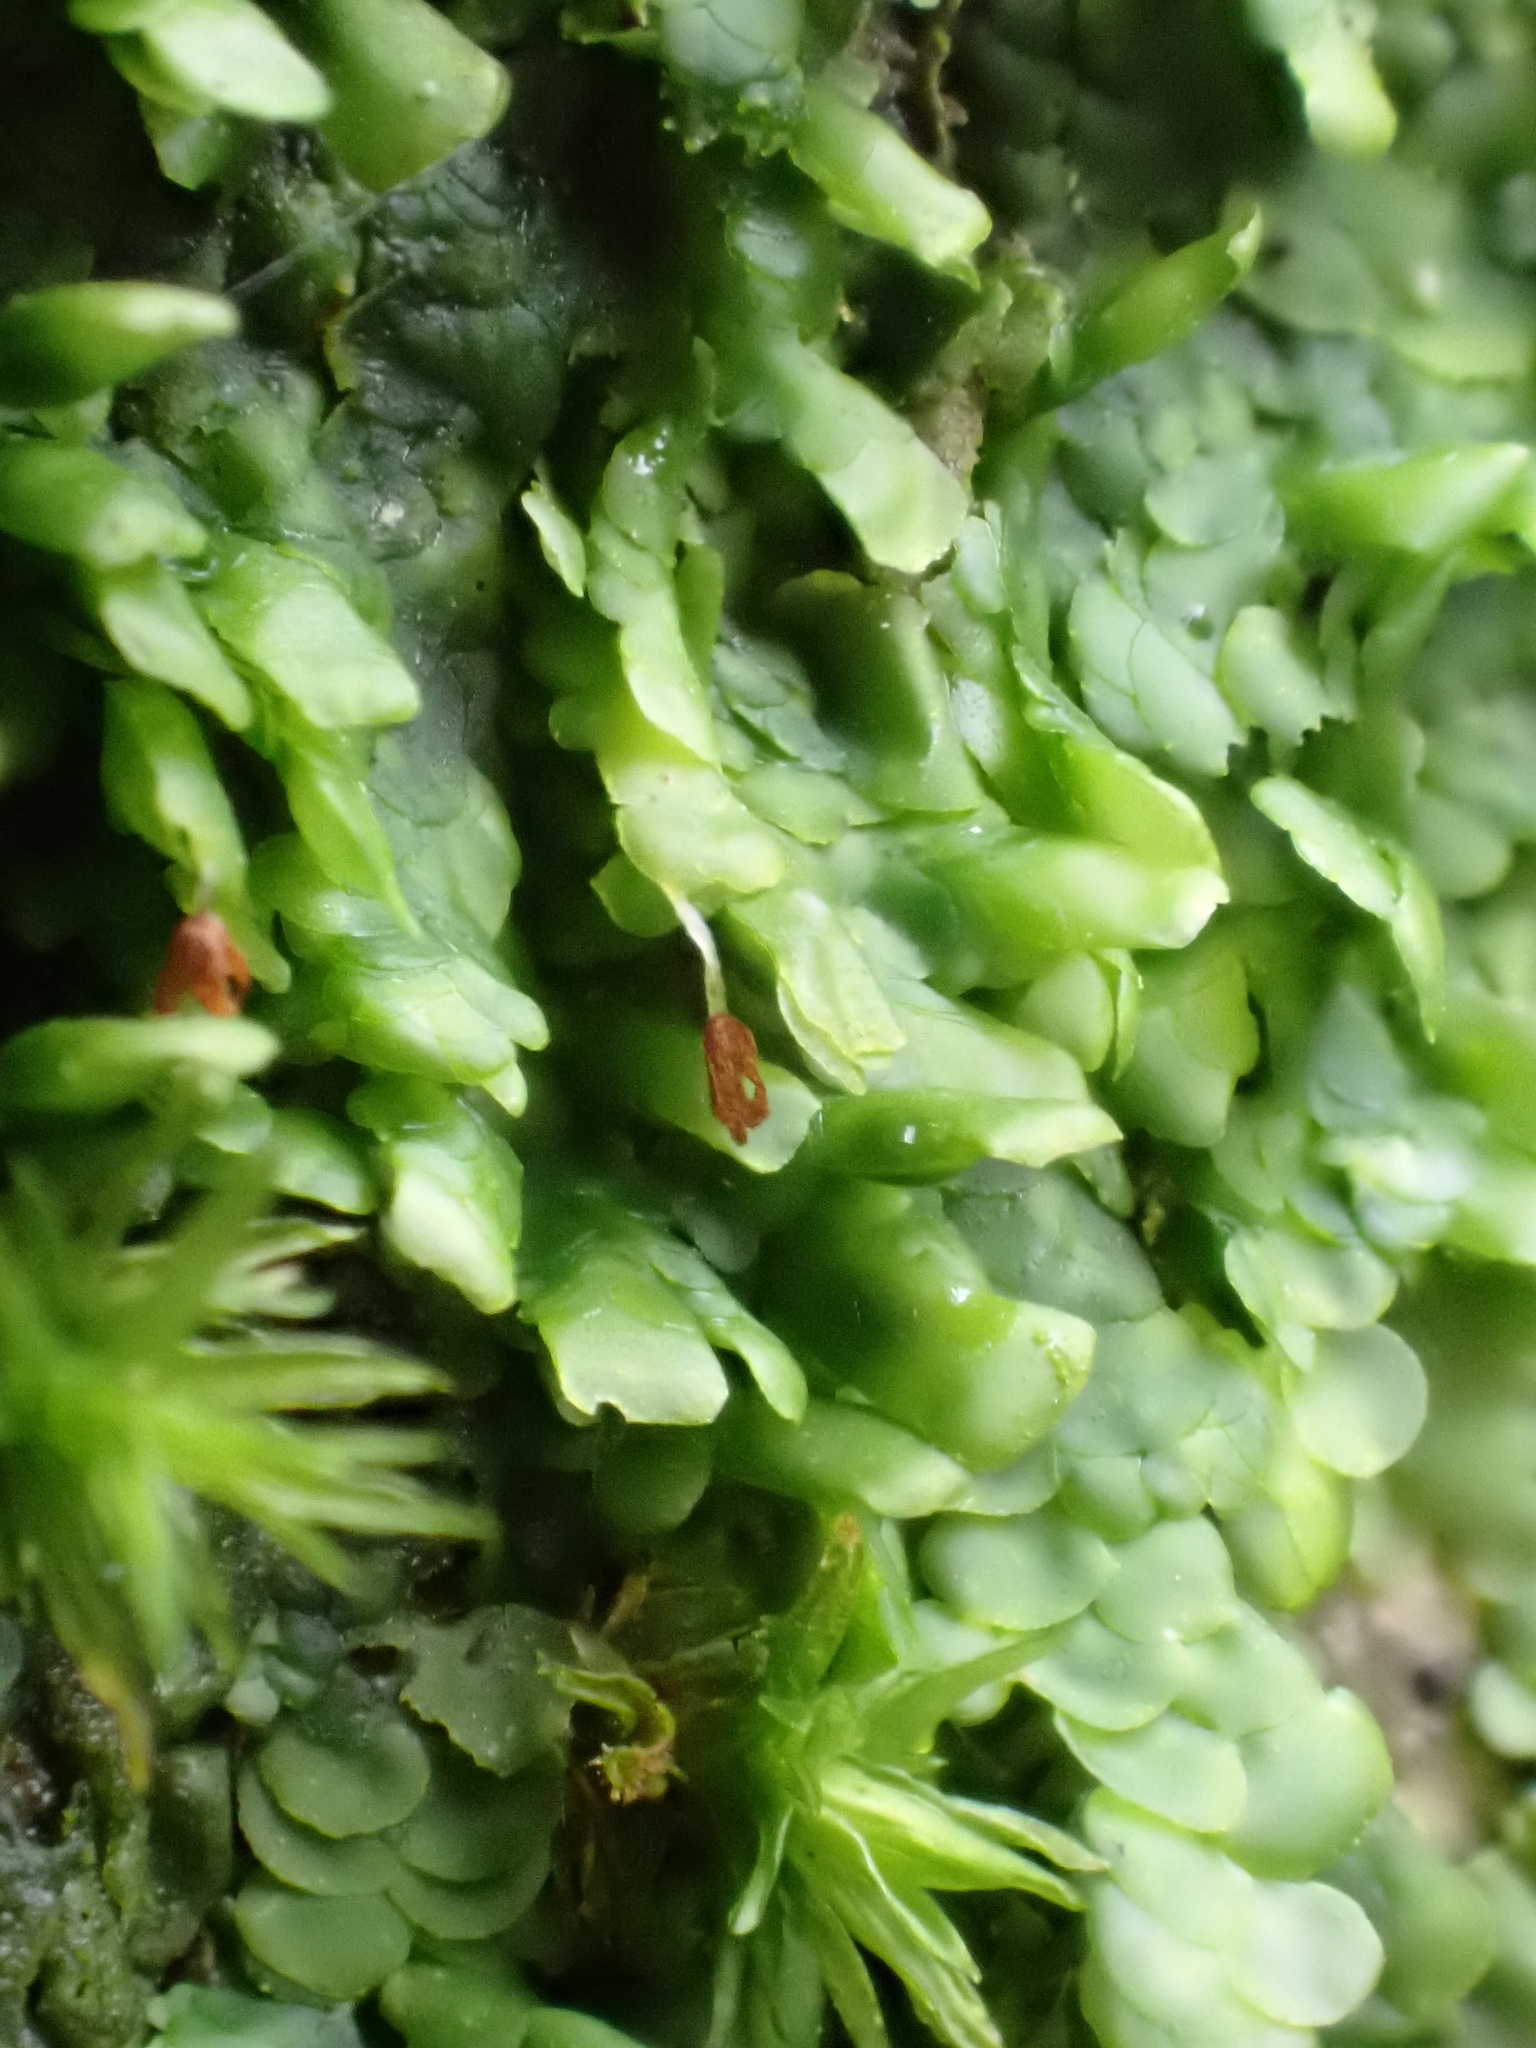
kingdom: Plantae
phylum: Marchantiophyta
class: Jungermanniopsida
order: Porellales
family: Radulaceae
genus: Radula
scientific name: Radula complanata
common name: Flat-leaved scalewort
